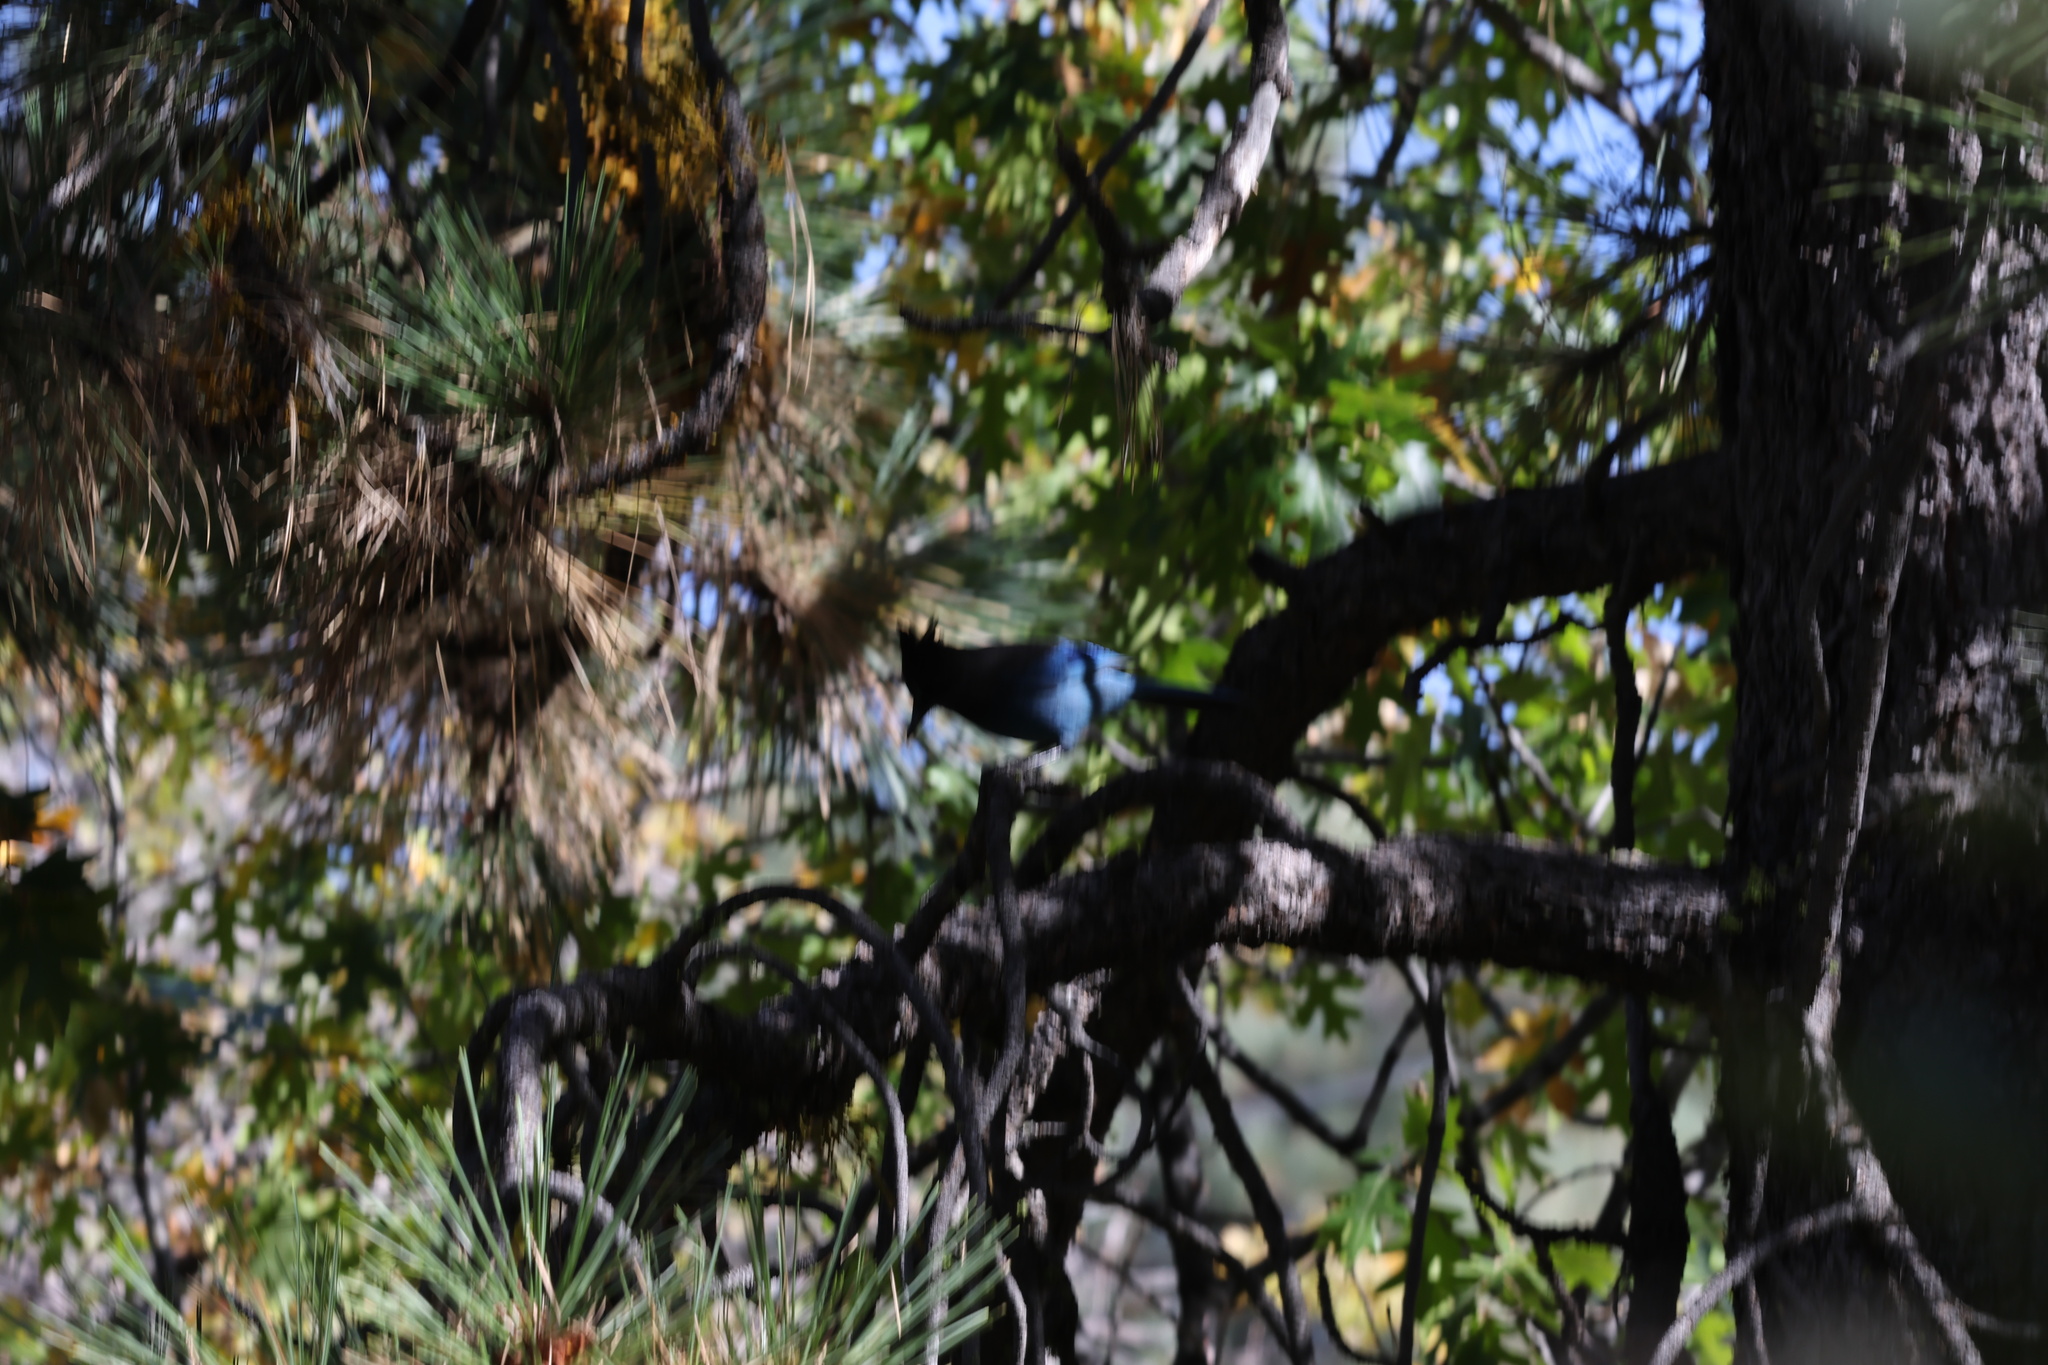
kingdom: Animalia
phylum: Chordata
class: Aves
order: Passeriformes
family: Corvidae
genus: Cyanocitta
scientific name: Cyanocitta stelleri
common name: Steller's jay
